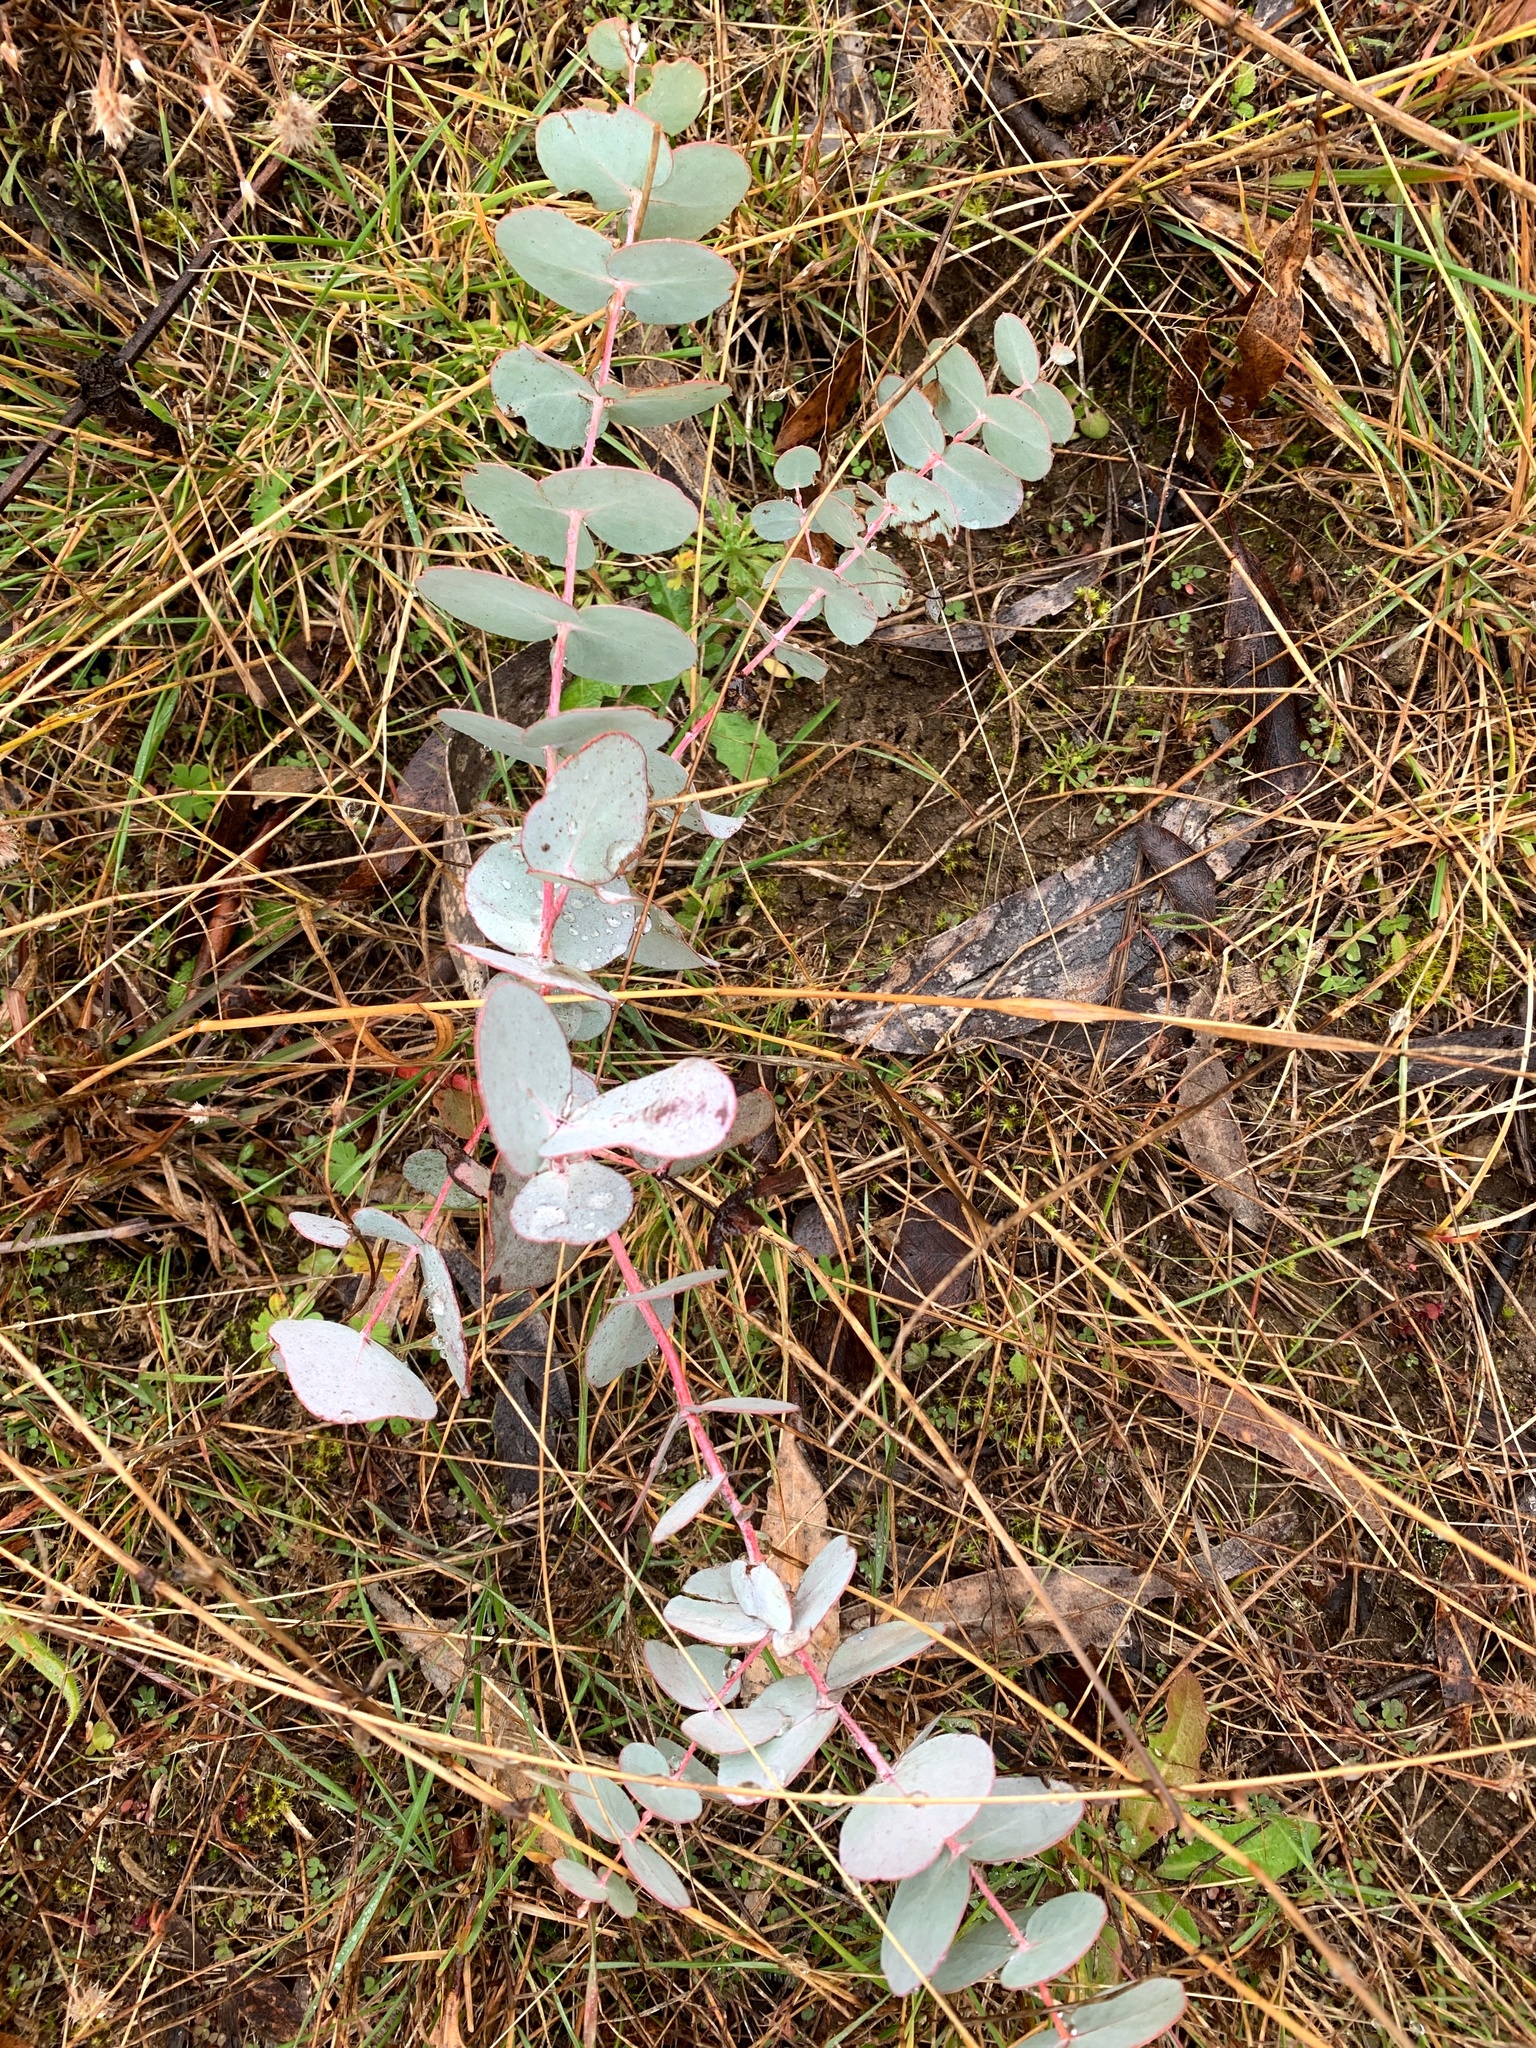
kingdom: Plantae
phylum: Tracheophyta
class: Magnoliopsida
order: Myrtales
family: Myrtaceae
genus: Eucalyptus
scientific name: Eucalyptus rubida
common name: Candlebark
